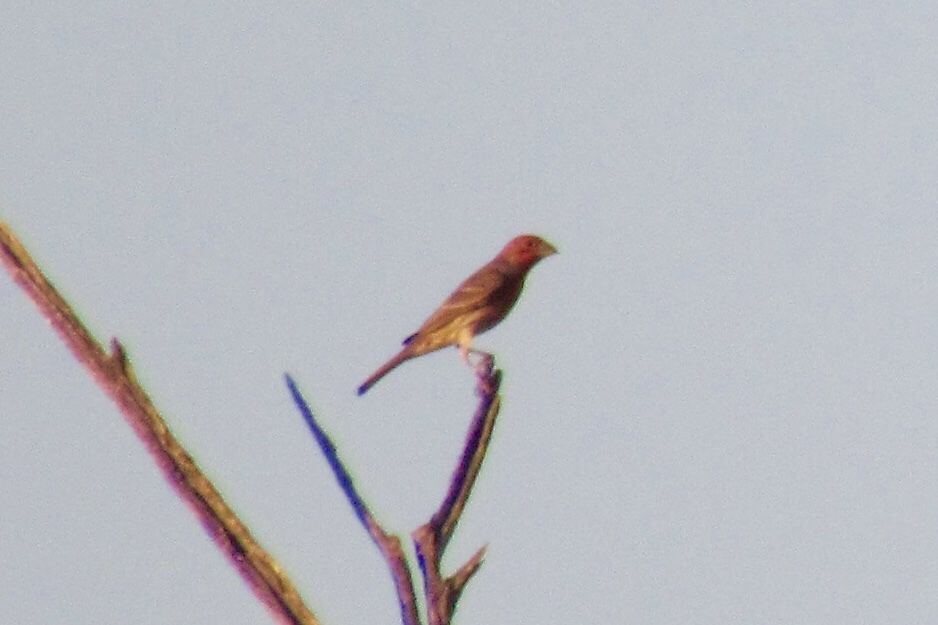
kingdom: Animalia
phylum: Chordata
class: Aves
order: Passeriformes
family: Fringillidae
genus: Haemorhous
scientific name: Haemorhous mexicanus
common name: House finch
